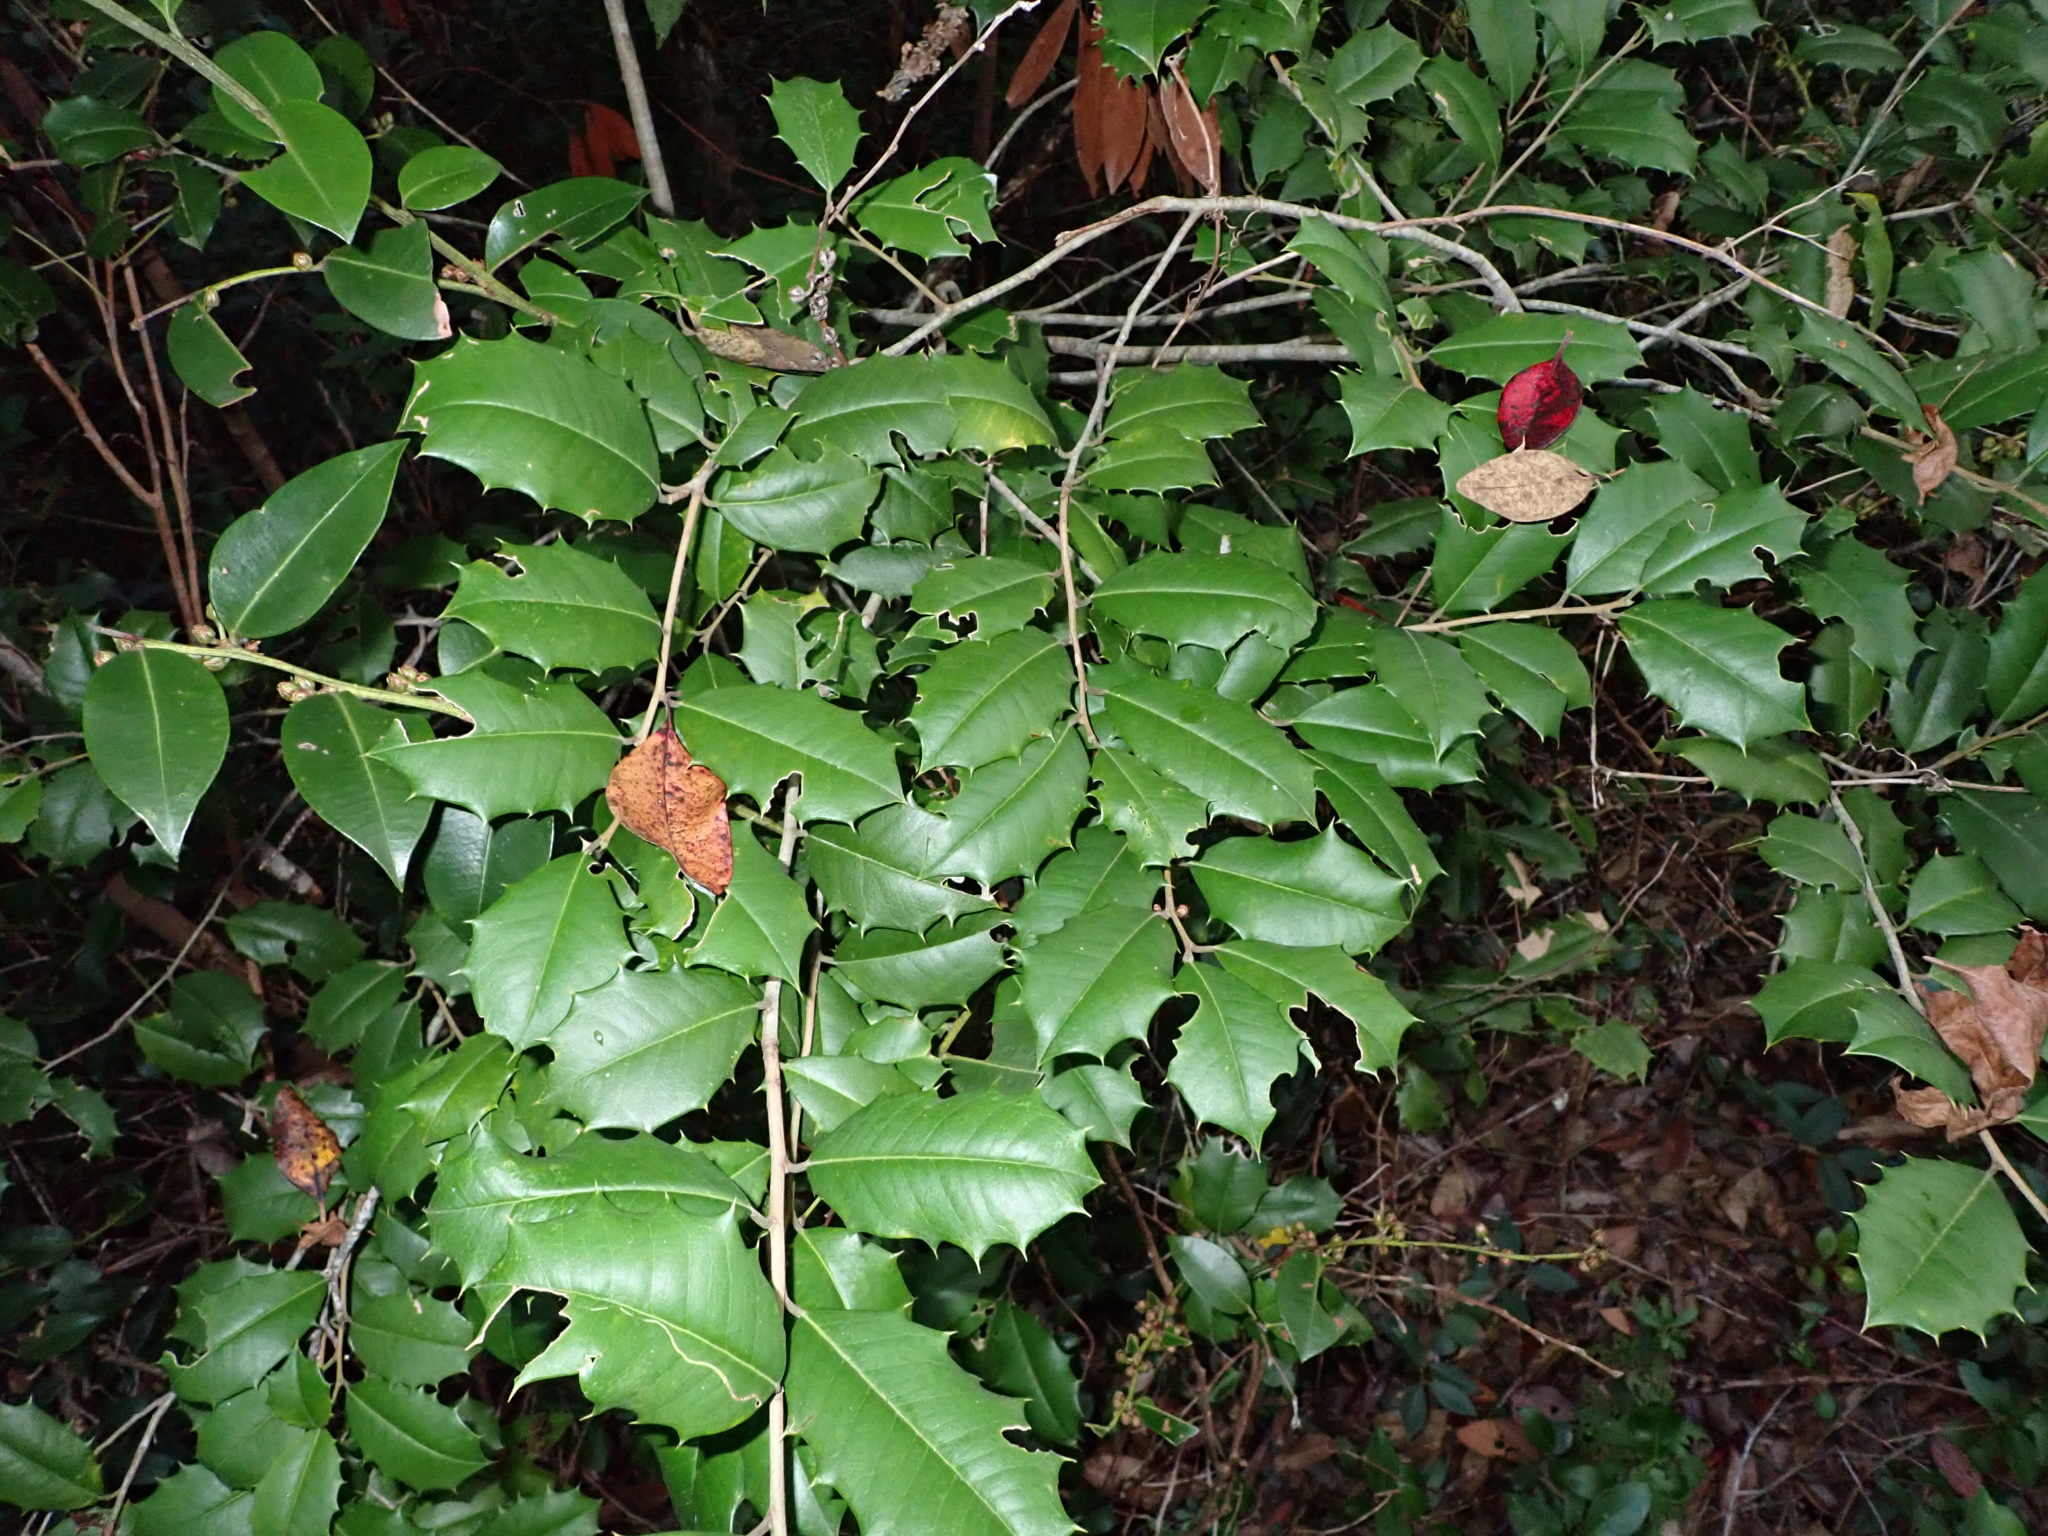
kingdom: Plantae
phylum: Tracheophyta
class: Magnoliopsida
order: Aquifoliales
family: Aquifoliaceae
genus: Ilex
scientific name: Ilex opaca
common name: American holly
